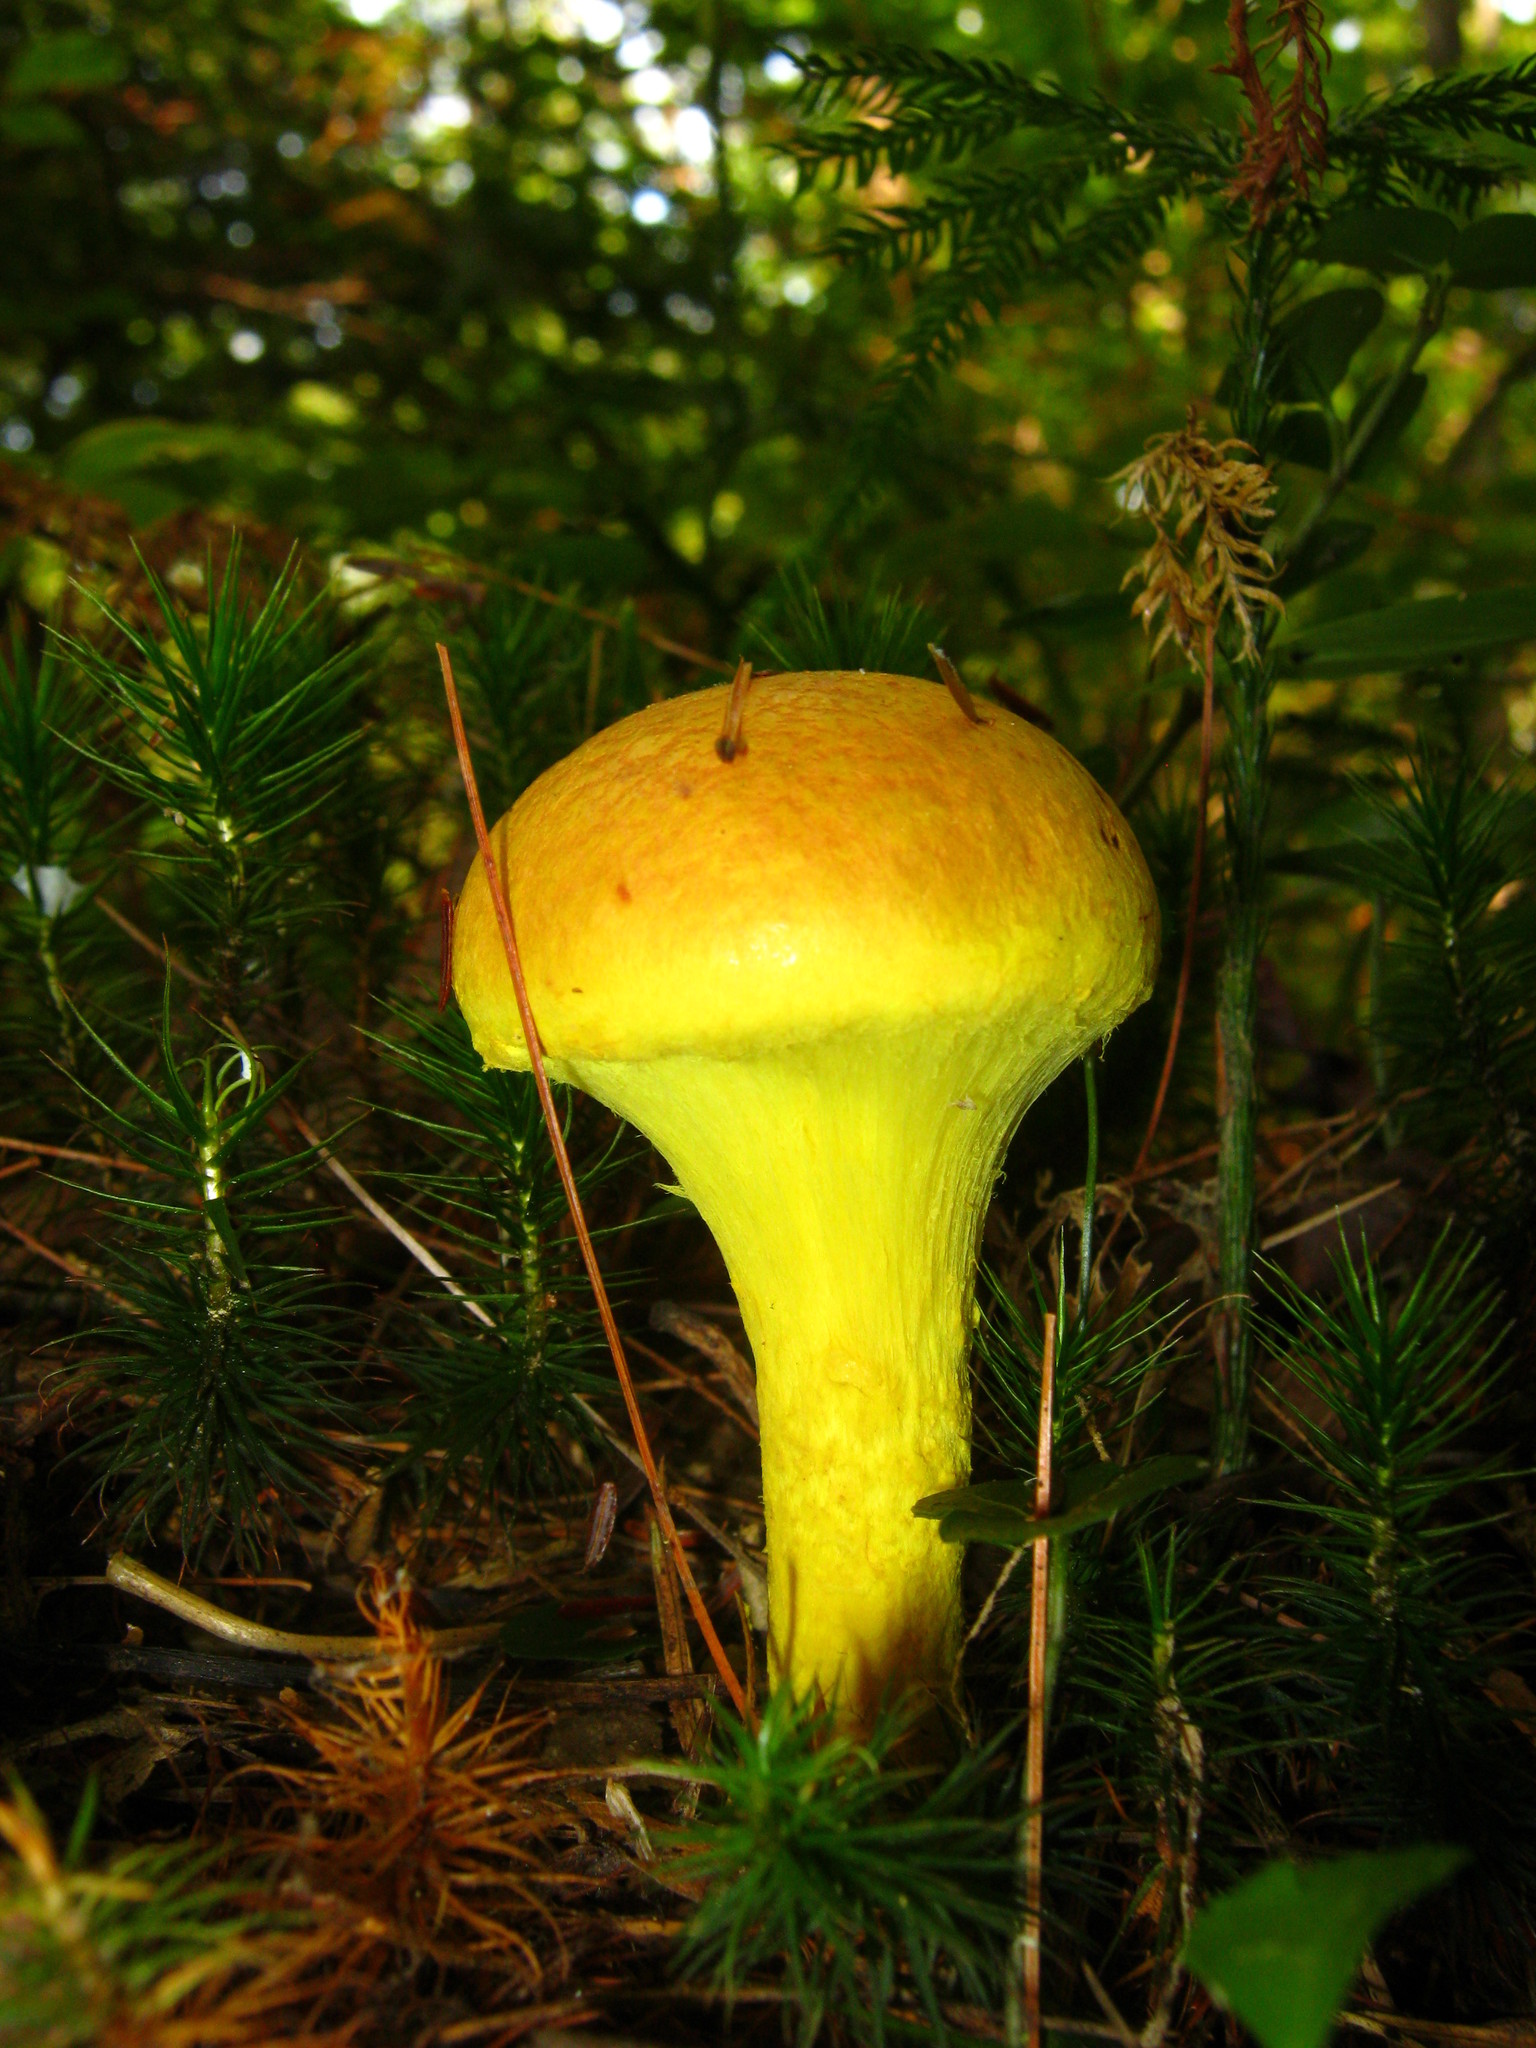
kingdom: Fungi
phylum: Basidiomycota
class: Agaricomycetes
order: Boletales
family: Boletaceae
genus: Pulveroboletus
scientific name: Pulveroboletus ravenelii
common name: Powdery sulfur bolete
